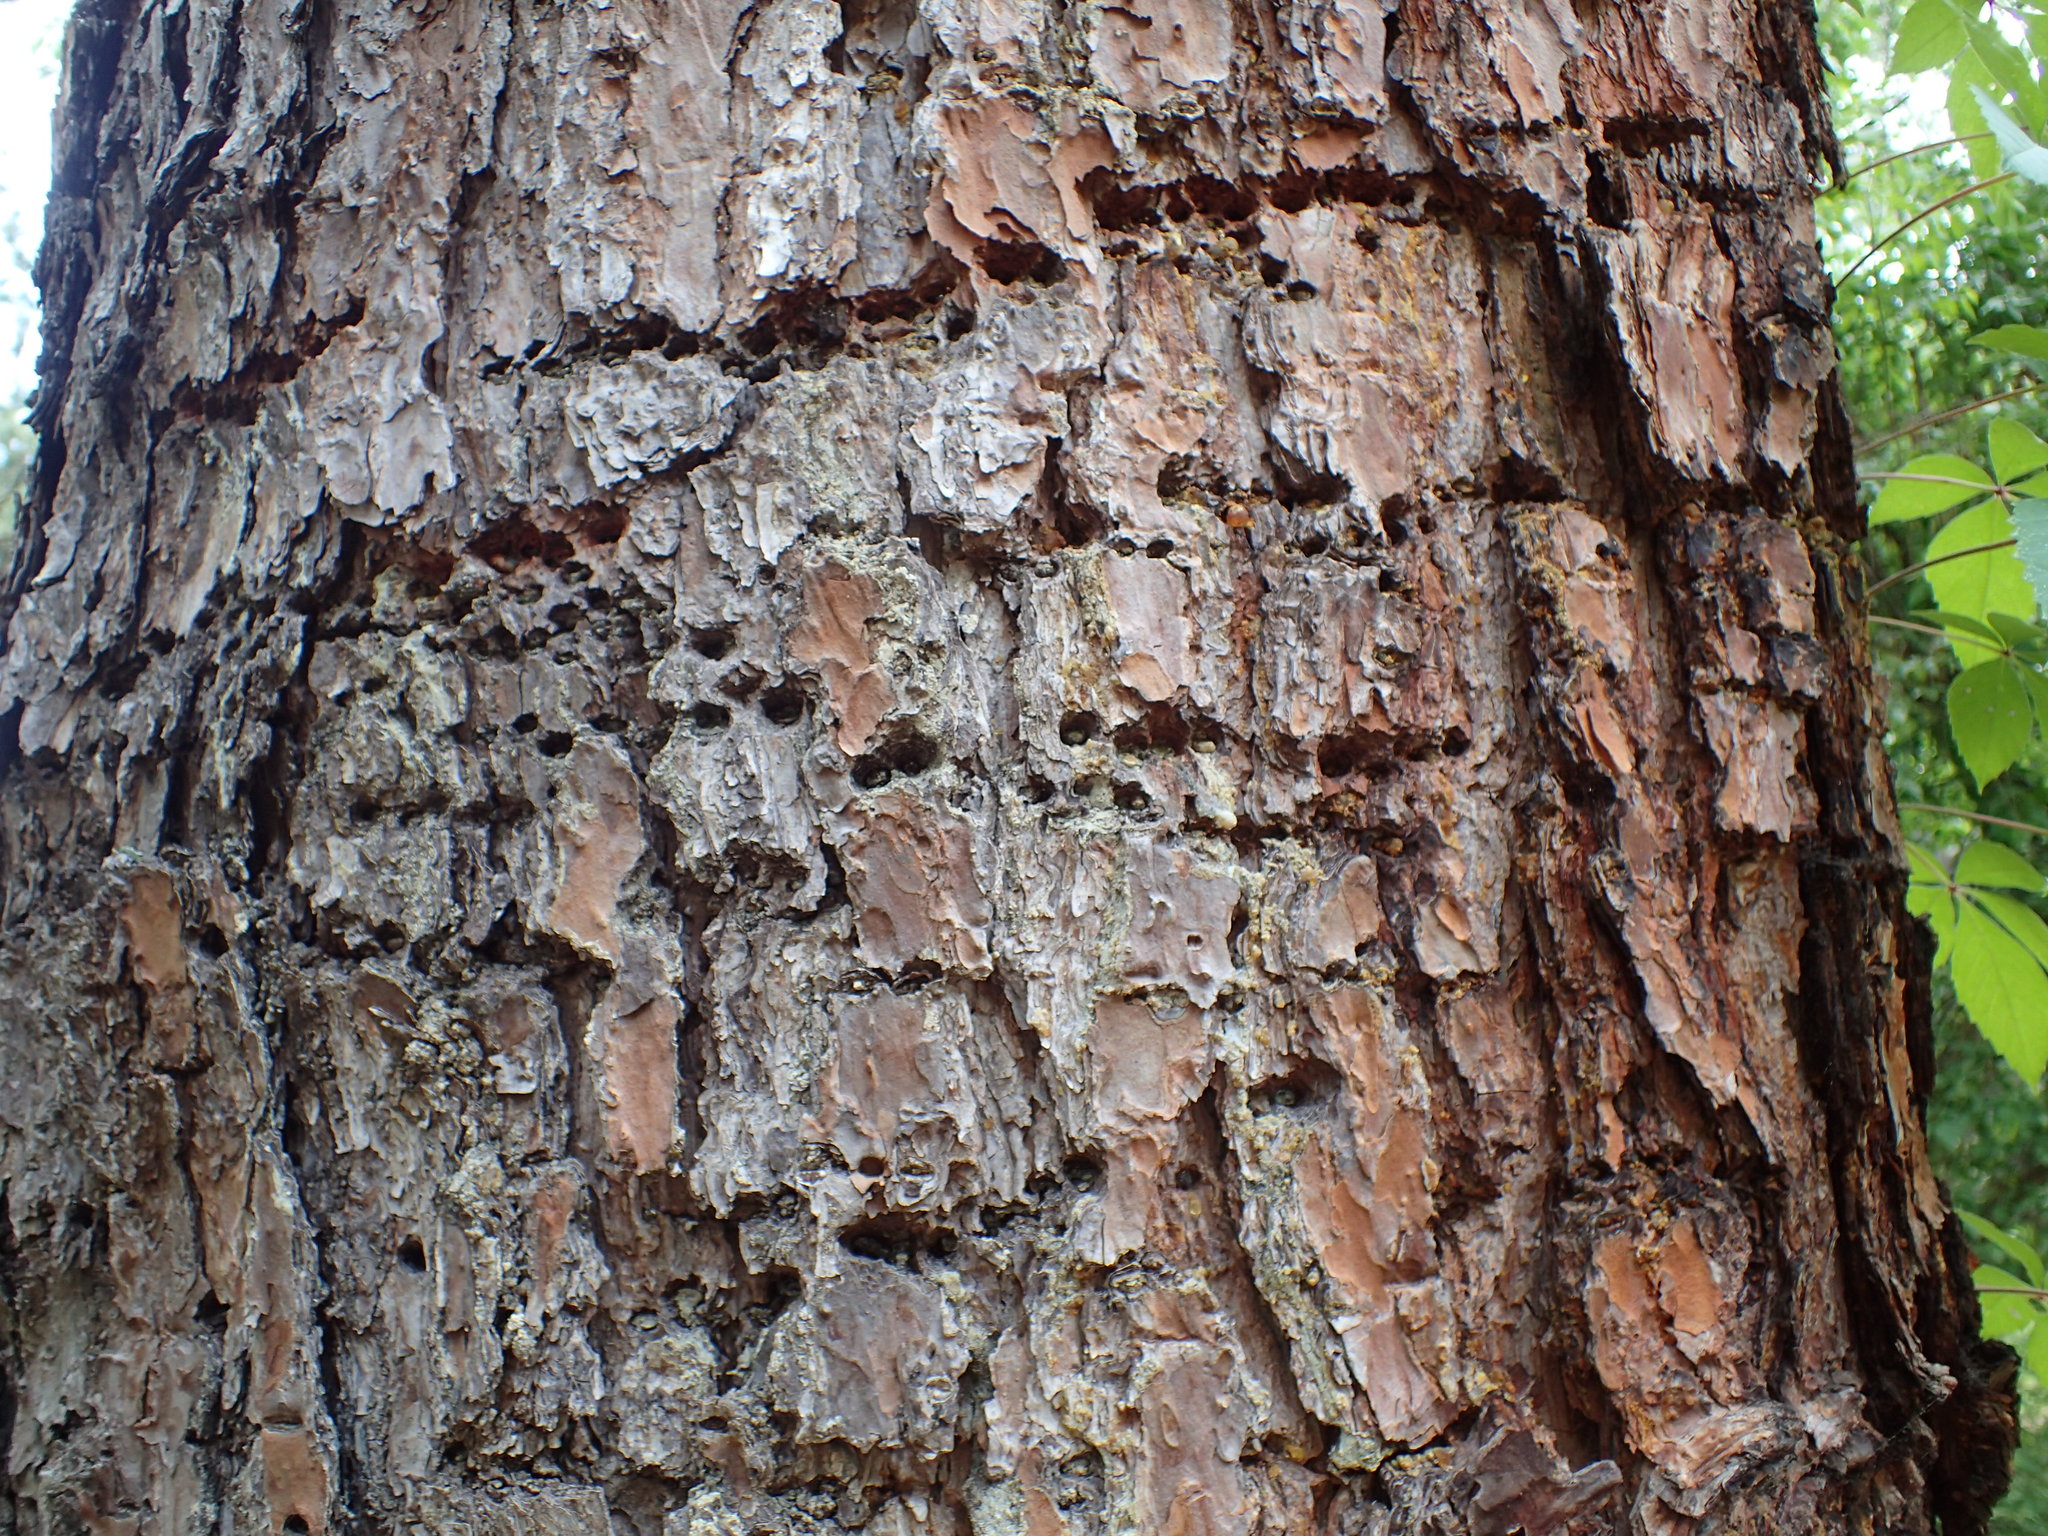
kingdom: Animalia
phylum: Chordata
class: Aves
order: Piciformes
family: Picidae
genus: Sphyrapicus
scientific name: Sphyrapicus varius
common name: Yellow-bellied sapsucker
